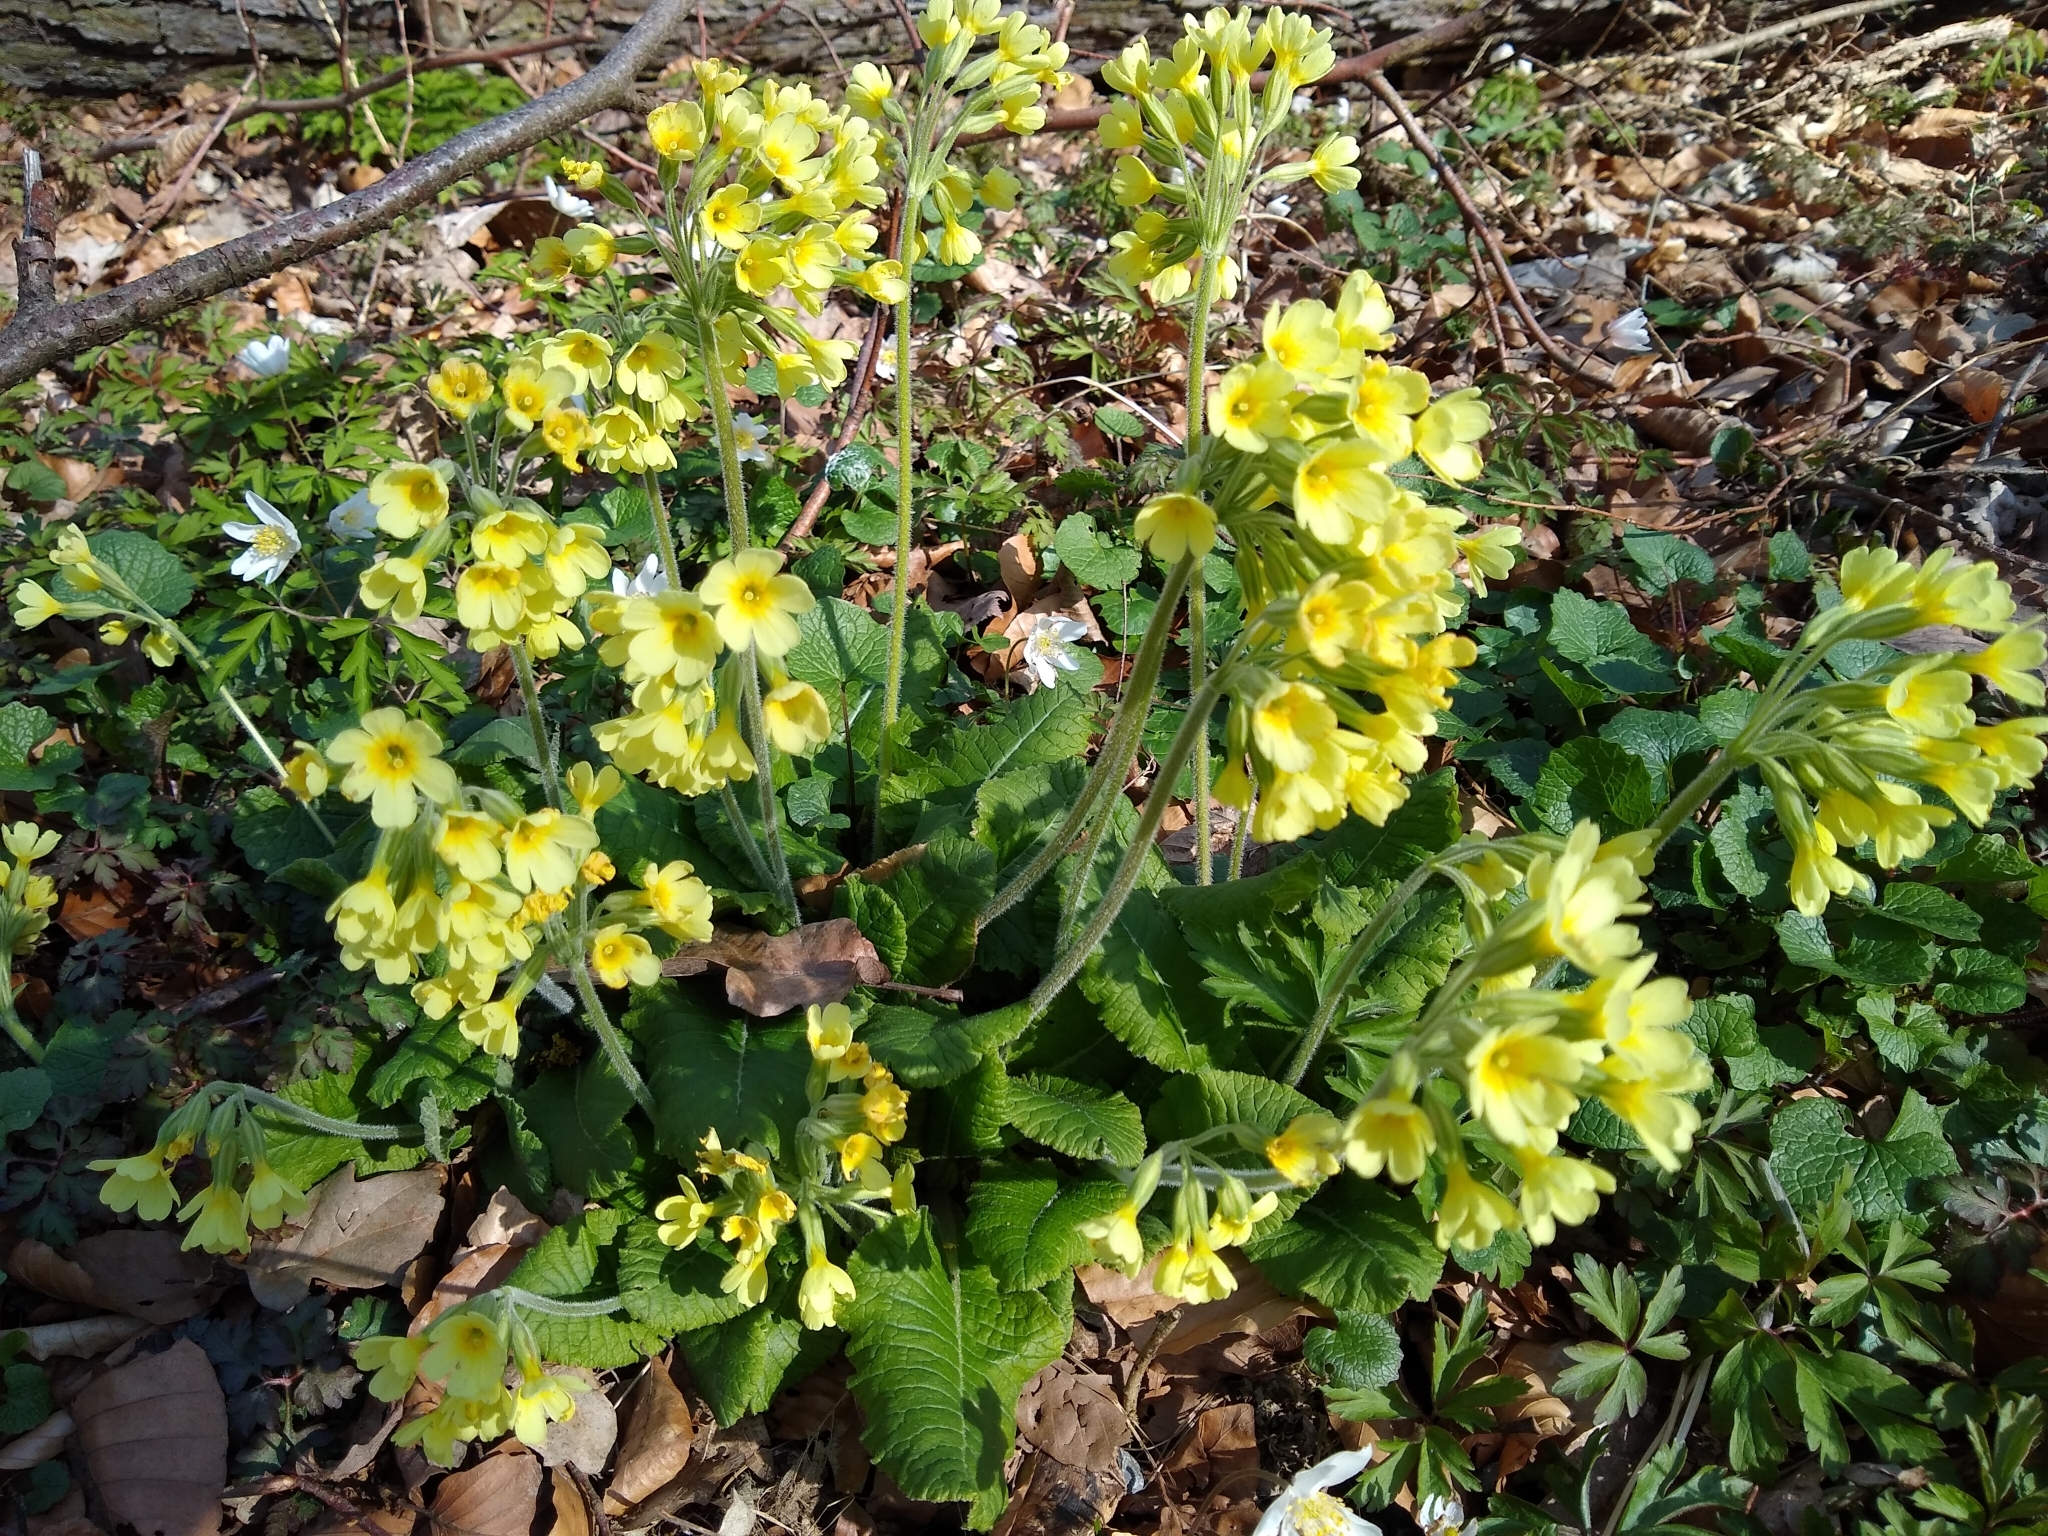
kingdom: Plantae
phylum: Tracheophyta
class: Magnoliopsida
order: Ericales
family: Primulaceae
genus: Primula
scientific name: Primula elatior
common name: Oxlip
